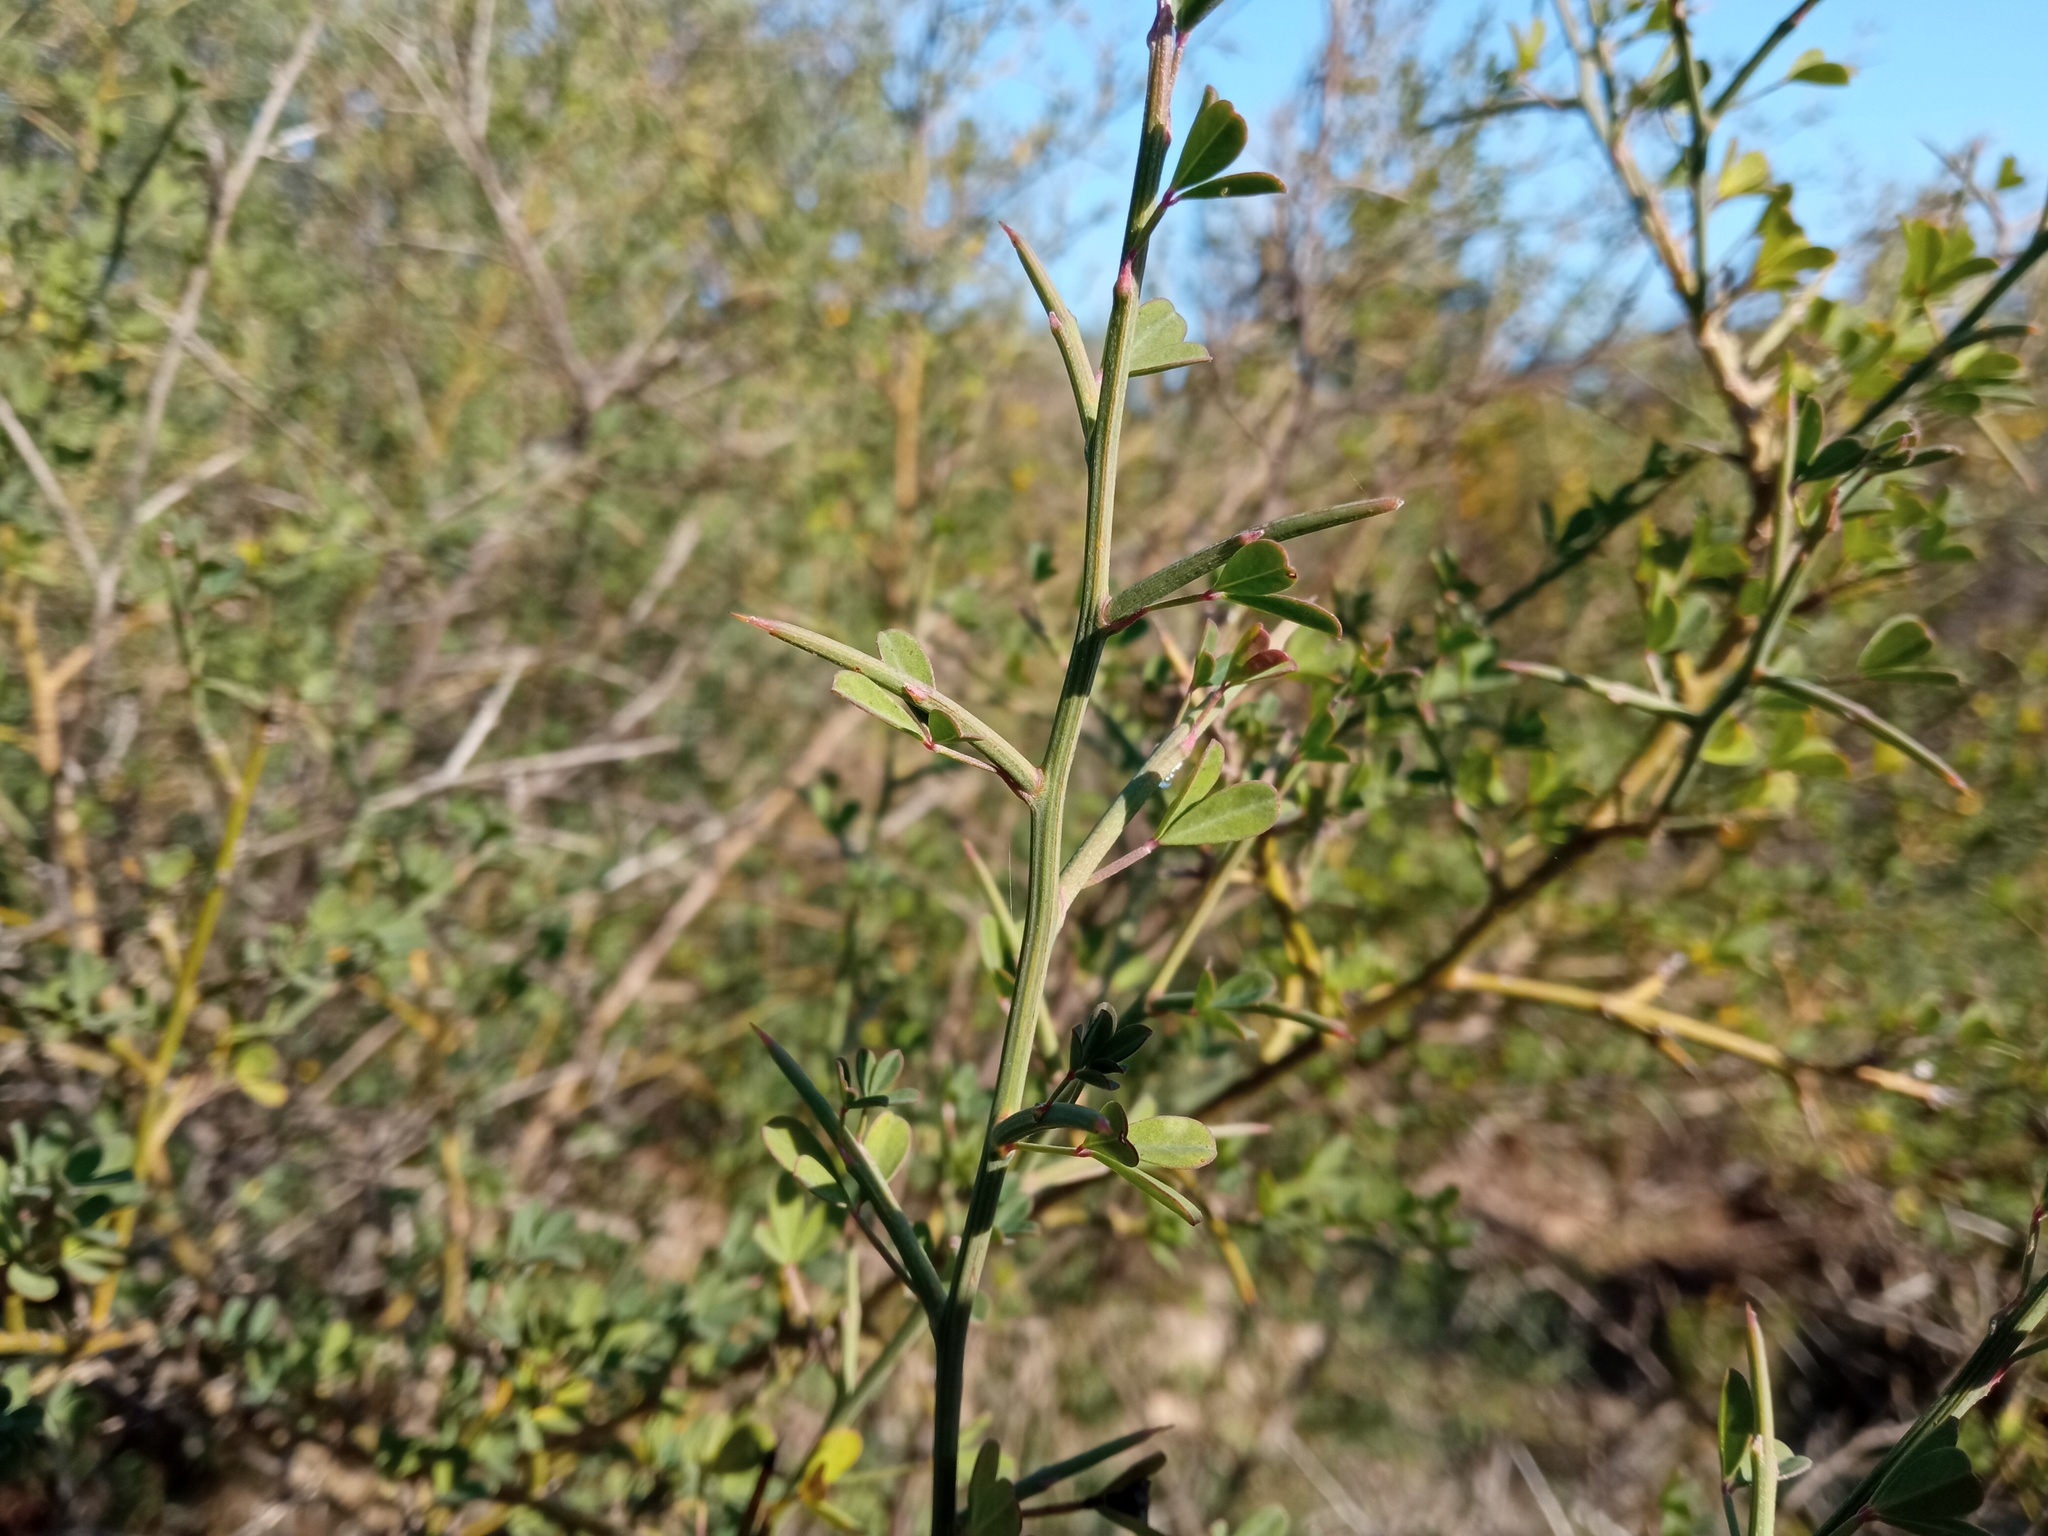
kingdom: Plantae
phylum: Tracheophyta
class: Magnoliopsida
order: Fabales
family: Fabaceae
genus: Calicotome
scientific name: Calicotome spinosa
